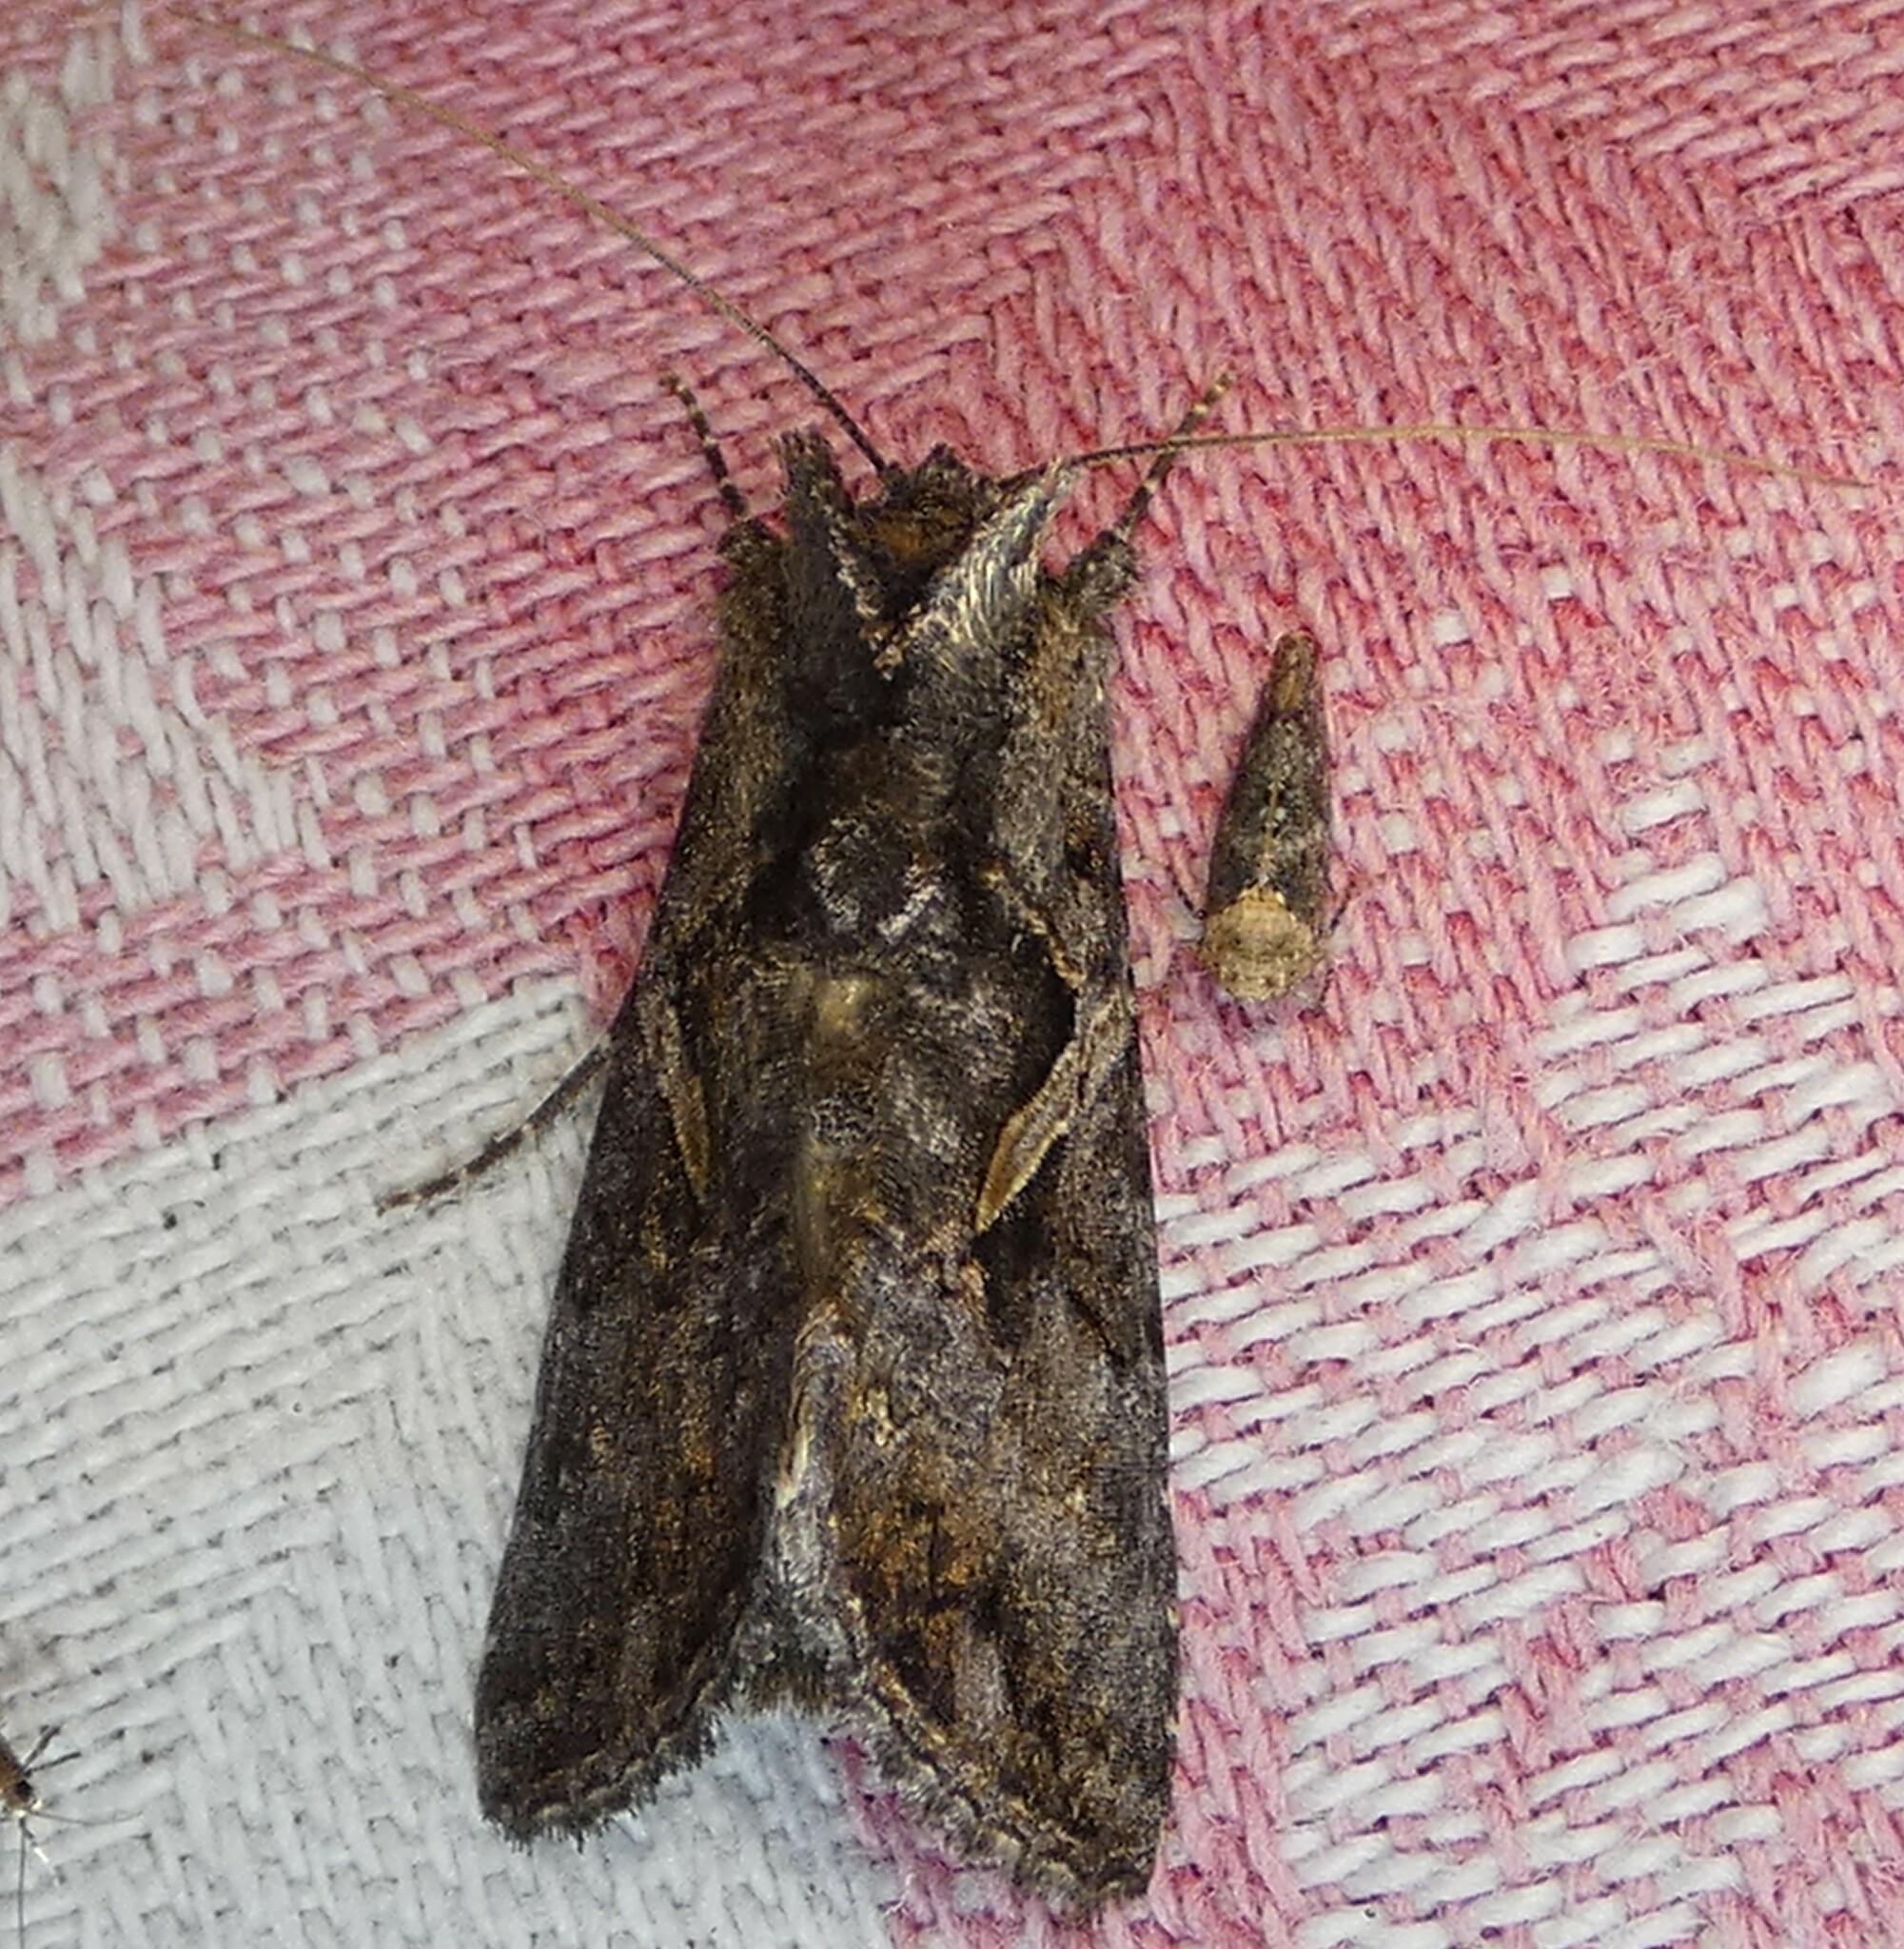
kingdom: Animalia
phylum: Arthropoda
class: Insecta
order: Lepidoptera
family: Noctuidae
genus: Ctenoplusia
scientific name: Ctenoplusia oxygramma
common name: Sharp-stigma looper moth
